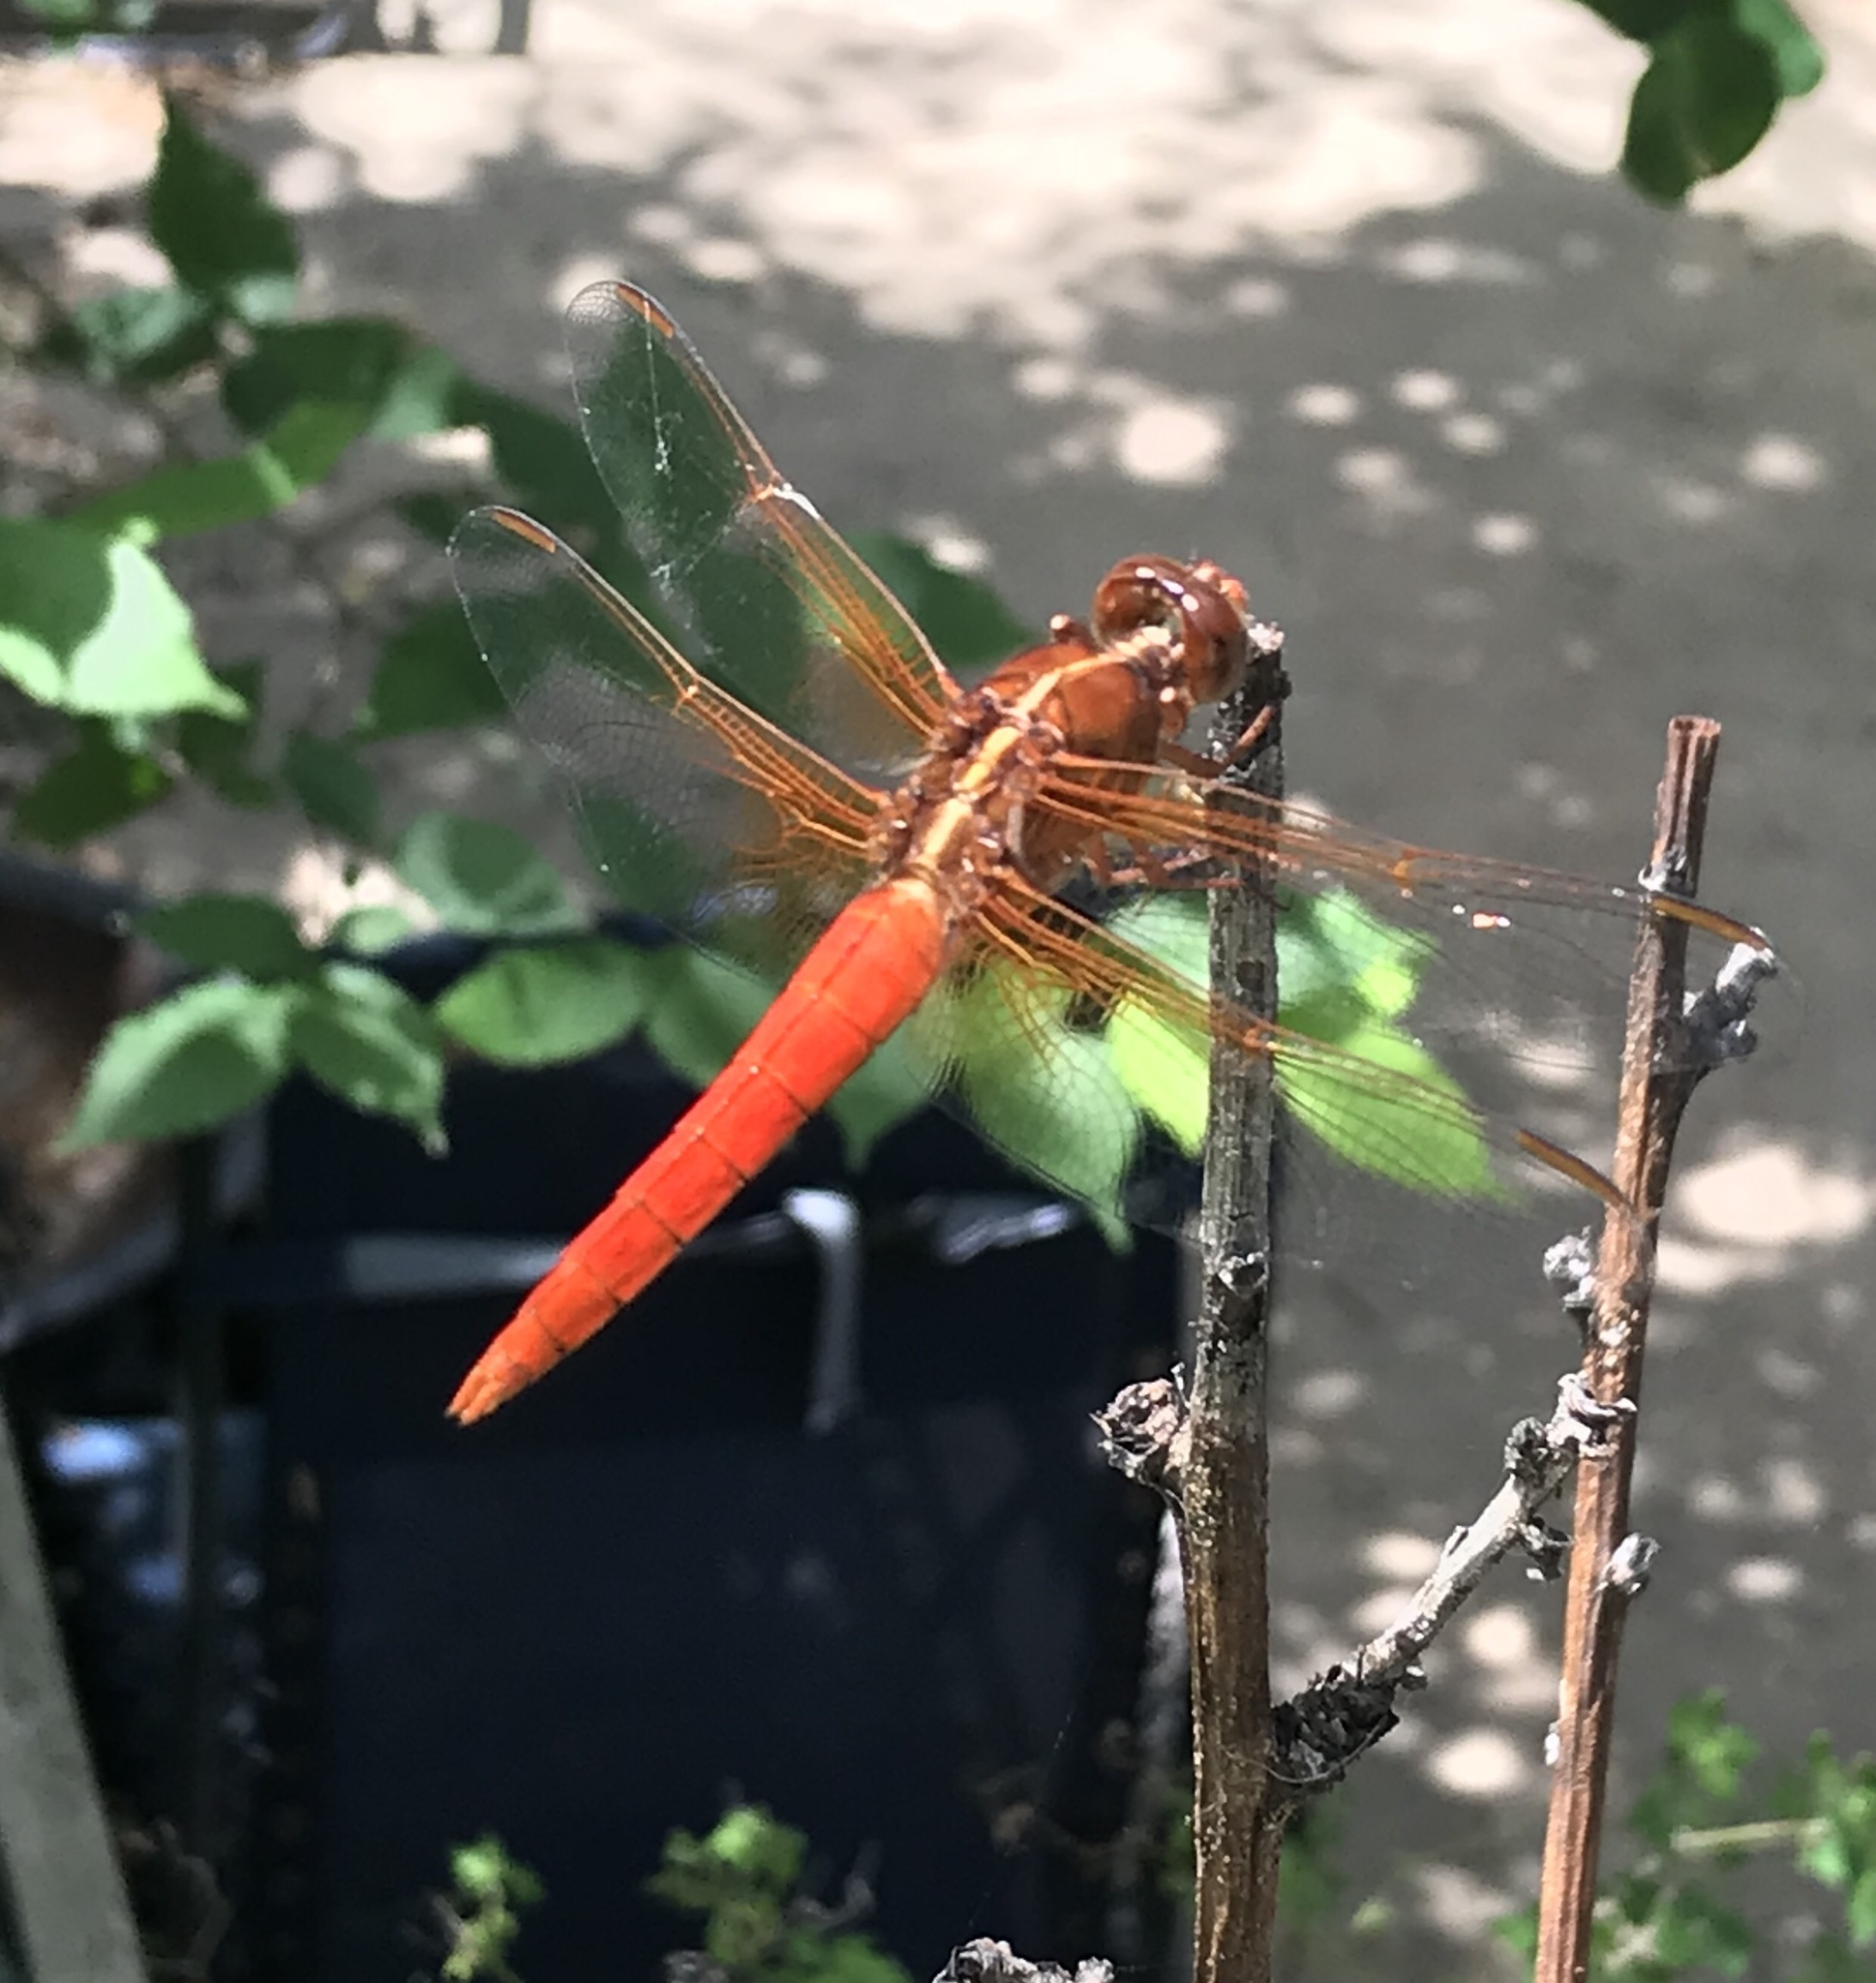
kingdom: Animalia
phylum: Arthropoda
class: Insecta
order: Odonata
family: Libellulidae
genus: Libellula
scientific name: Libellula croceipennis
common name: Neon skimmer
